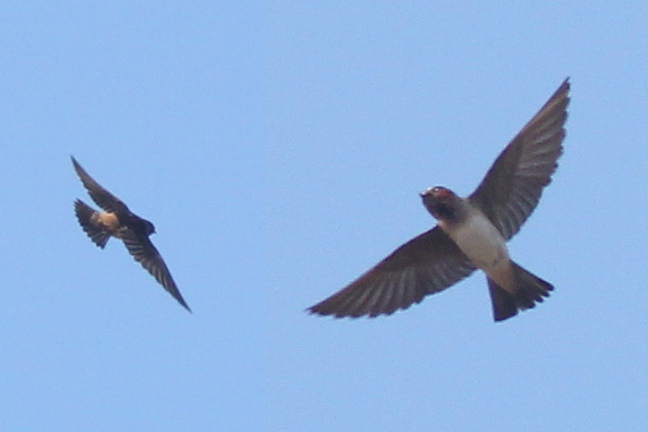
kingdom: Animalia
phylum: Chordata
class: Aves
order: Passeriformes
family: Hirundinidae
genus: Petrochelidon
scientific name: Petrochelidon pyrrhonota
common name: American cliff swallow
